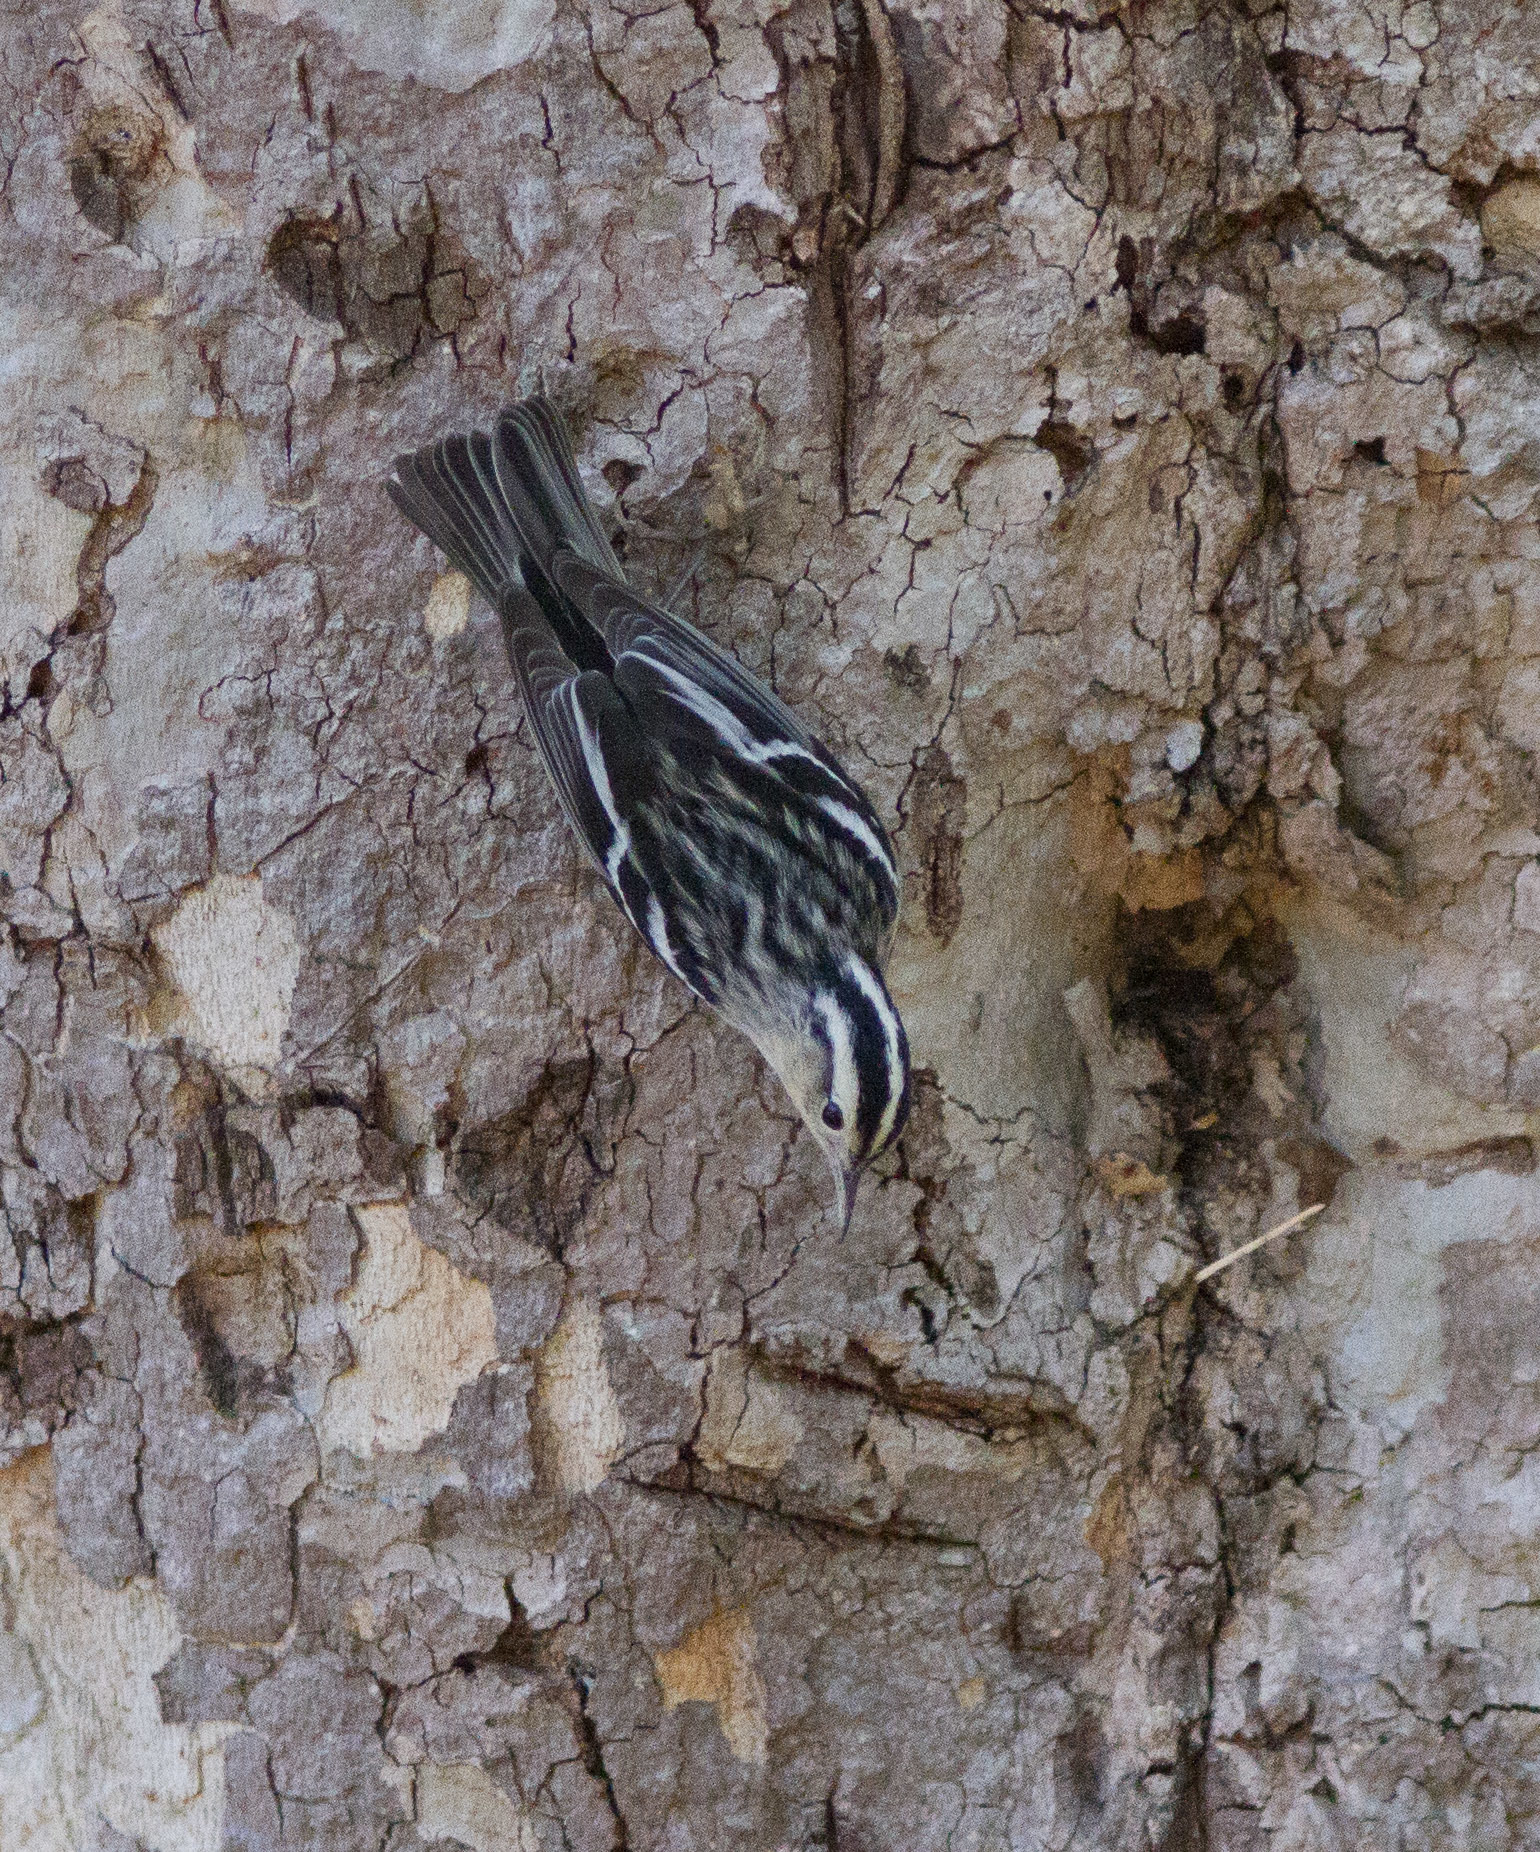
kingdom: Animalia
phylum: Chordata
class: Aves
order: Passeriformes
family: Parulidae
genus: Mniotilta
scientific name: Mniotilta varia
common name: Black-and-white warbler
